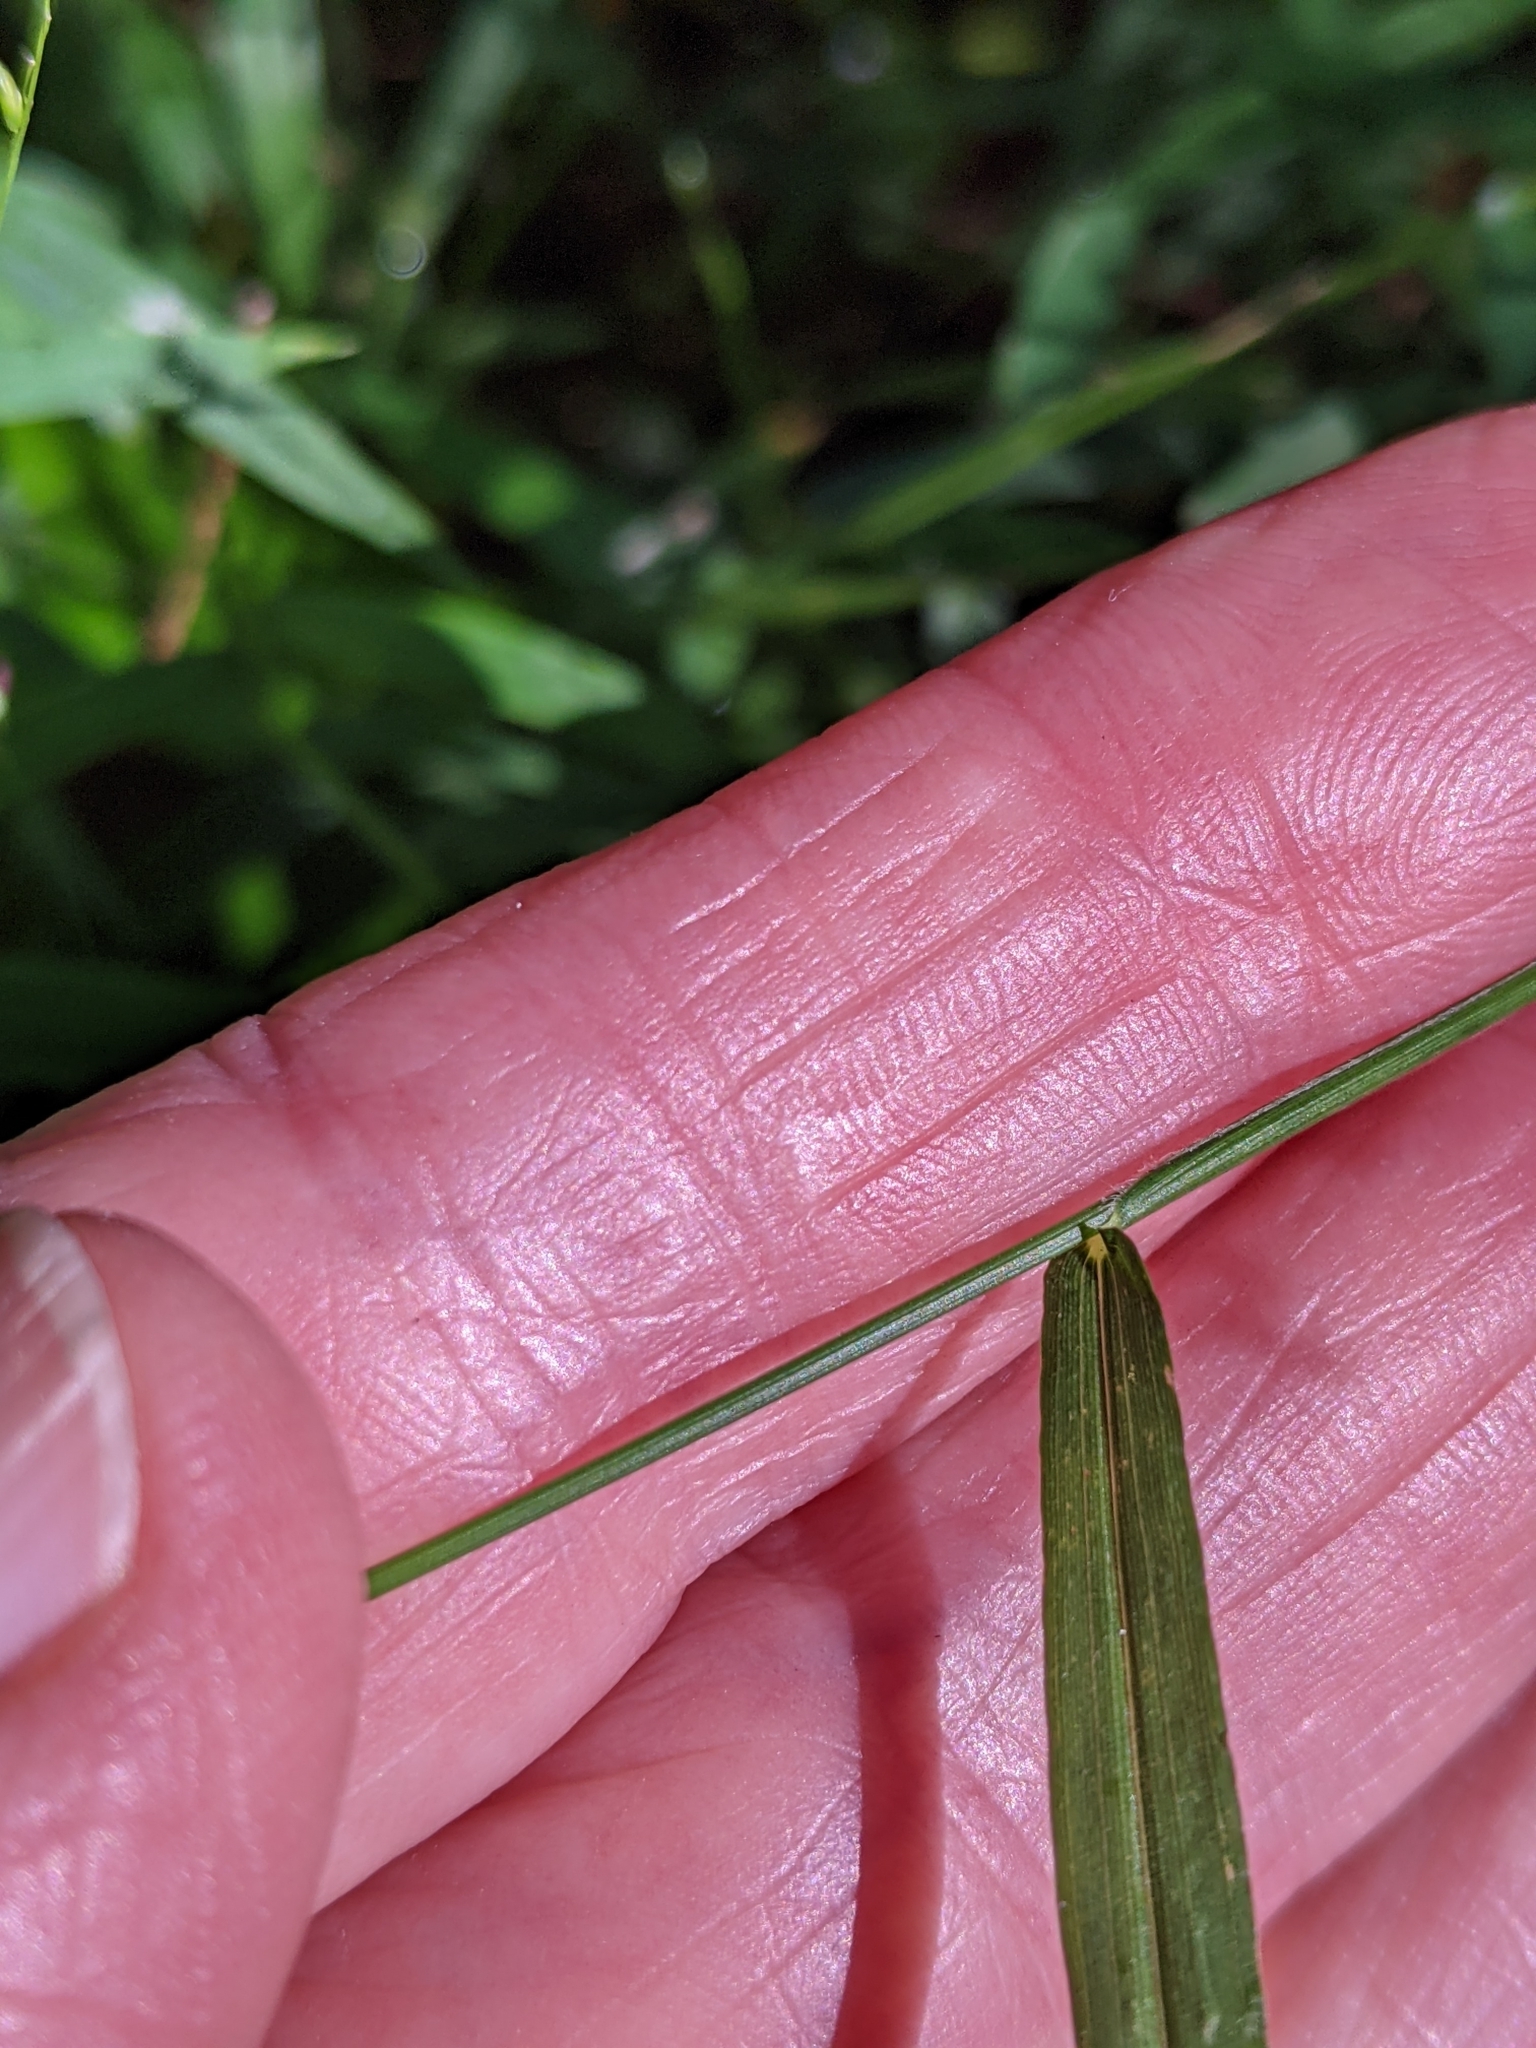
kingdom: Plantae
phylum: Tracheophyta
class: Liliopsida
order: Poales
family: Poaceae
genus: Ottochloa
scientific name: Ottochloa gracillima
